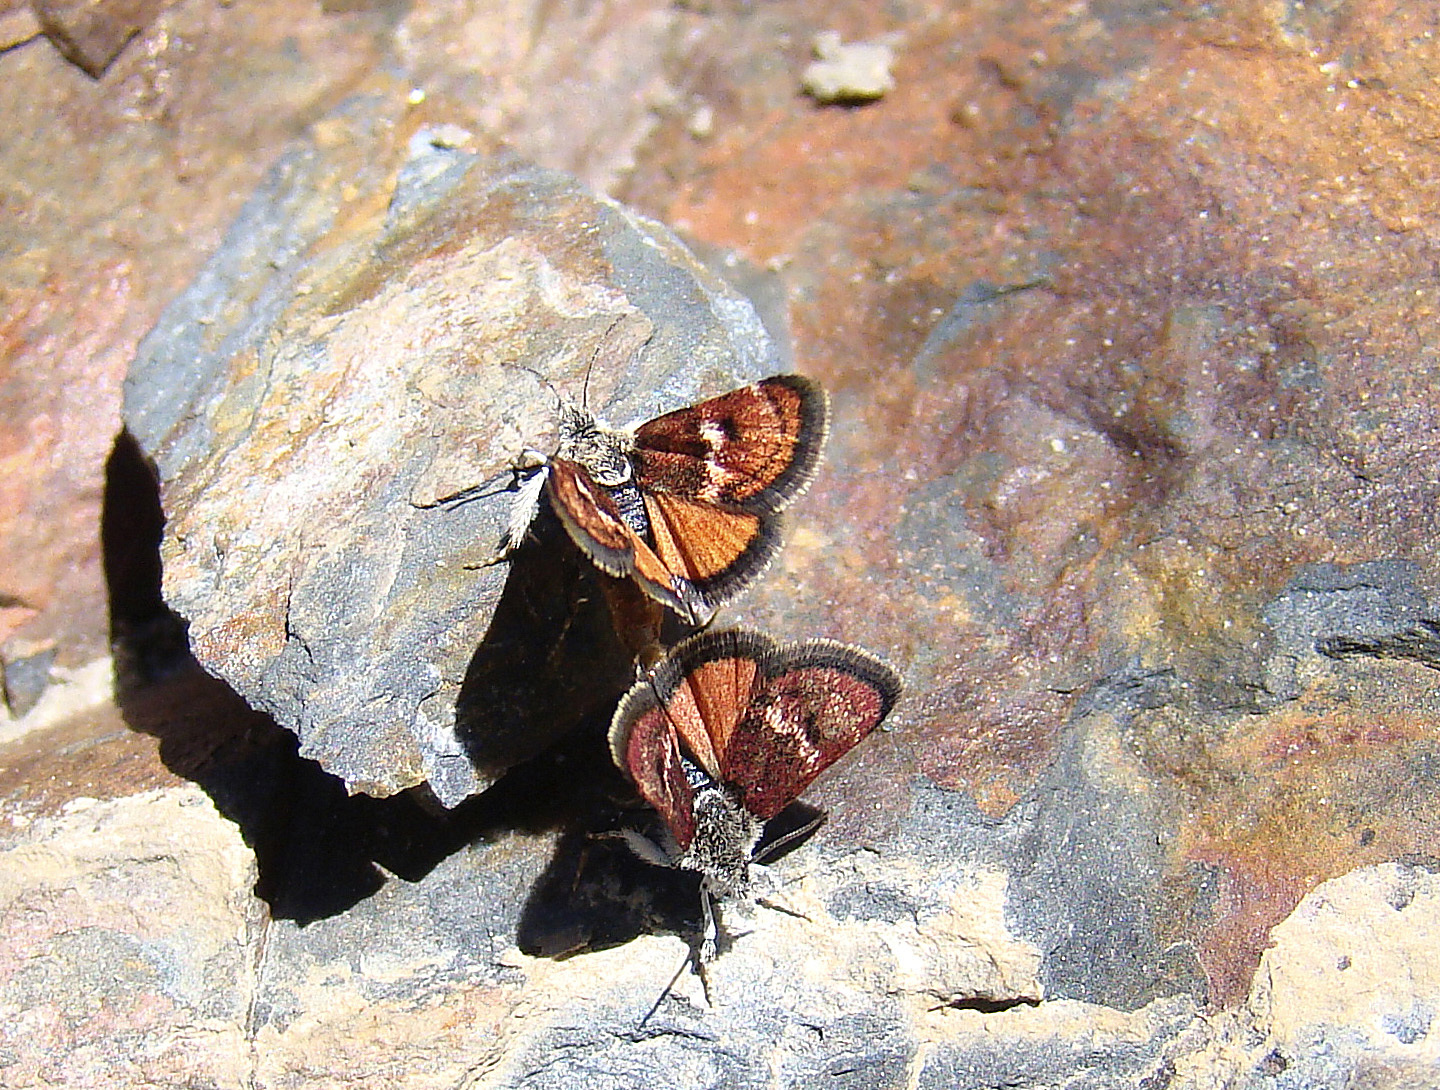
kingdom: Animalia
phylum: Arthropoda
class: Insecta
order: Lepidoptera
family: Crambidae
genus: Gyros
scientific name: Gyros muiri
